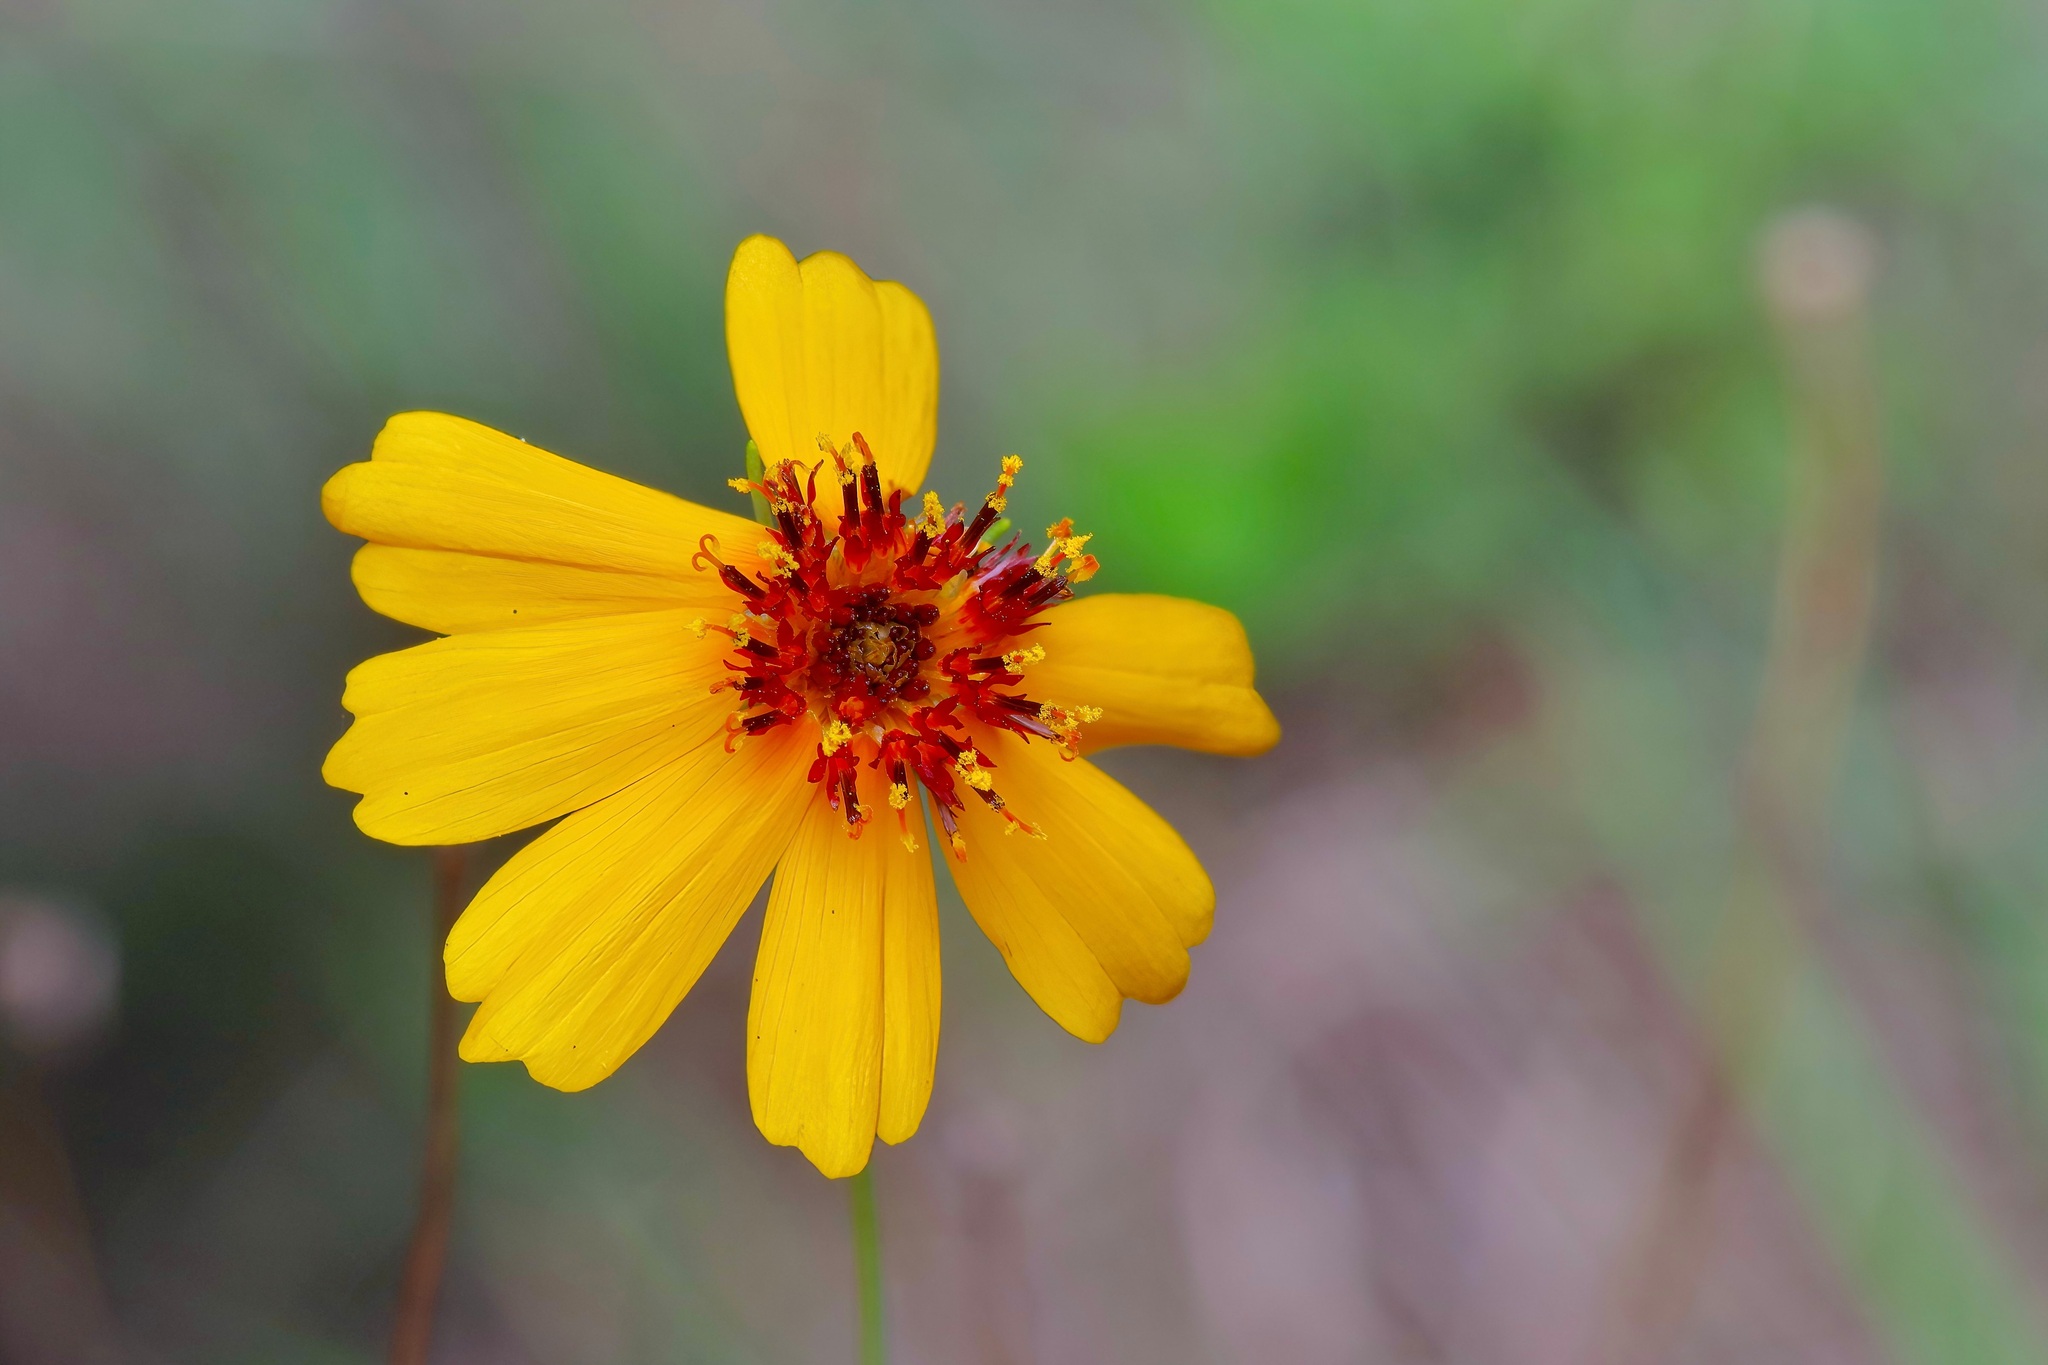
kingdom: Plantae
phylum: Tracheophyta
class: Magnoliopsida
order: Asterales
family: Asteraceae
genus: Thelesperma
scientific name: Thelesperma filifolium
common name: Stiff greenthread
